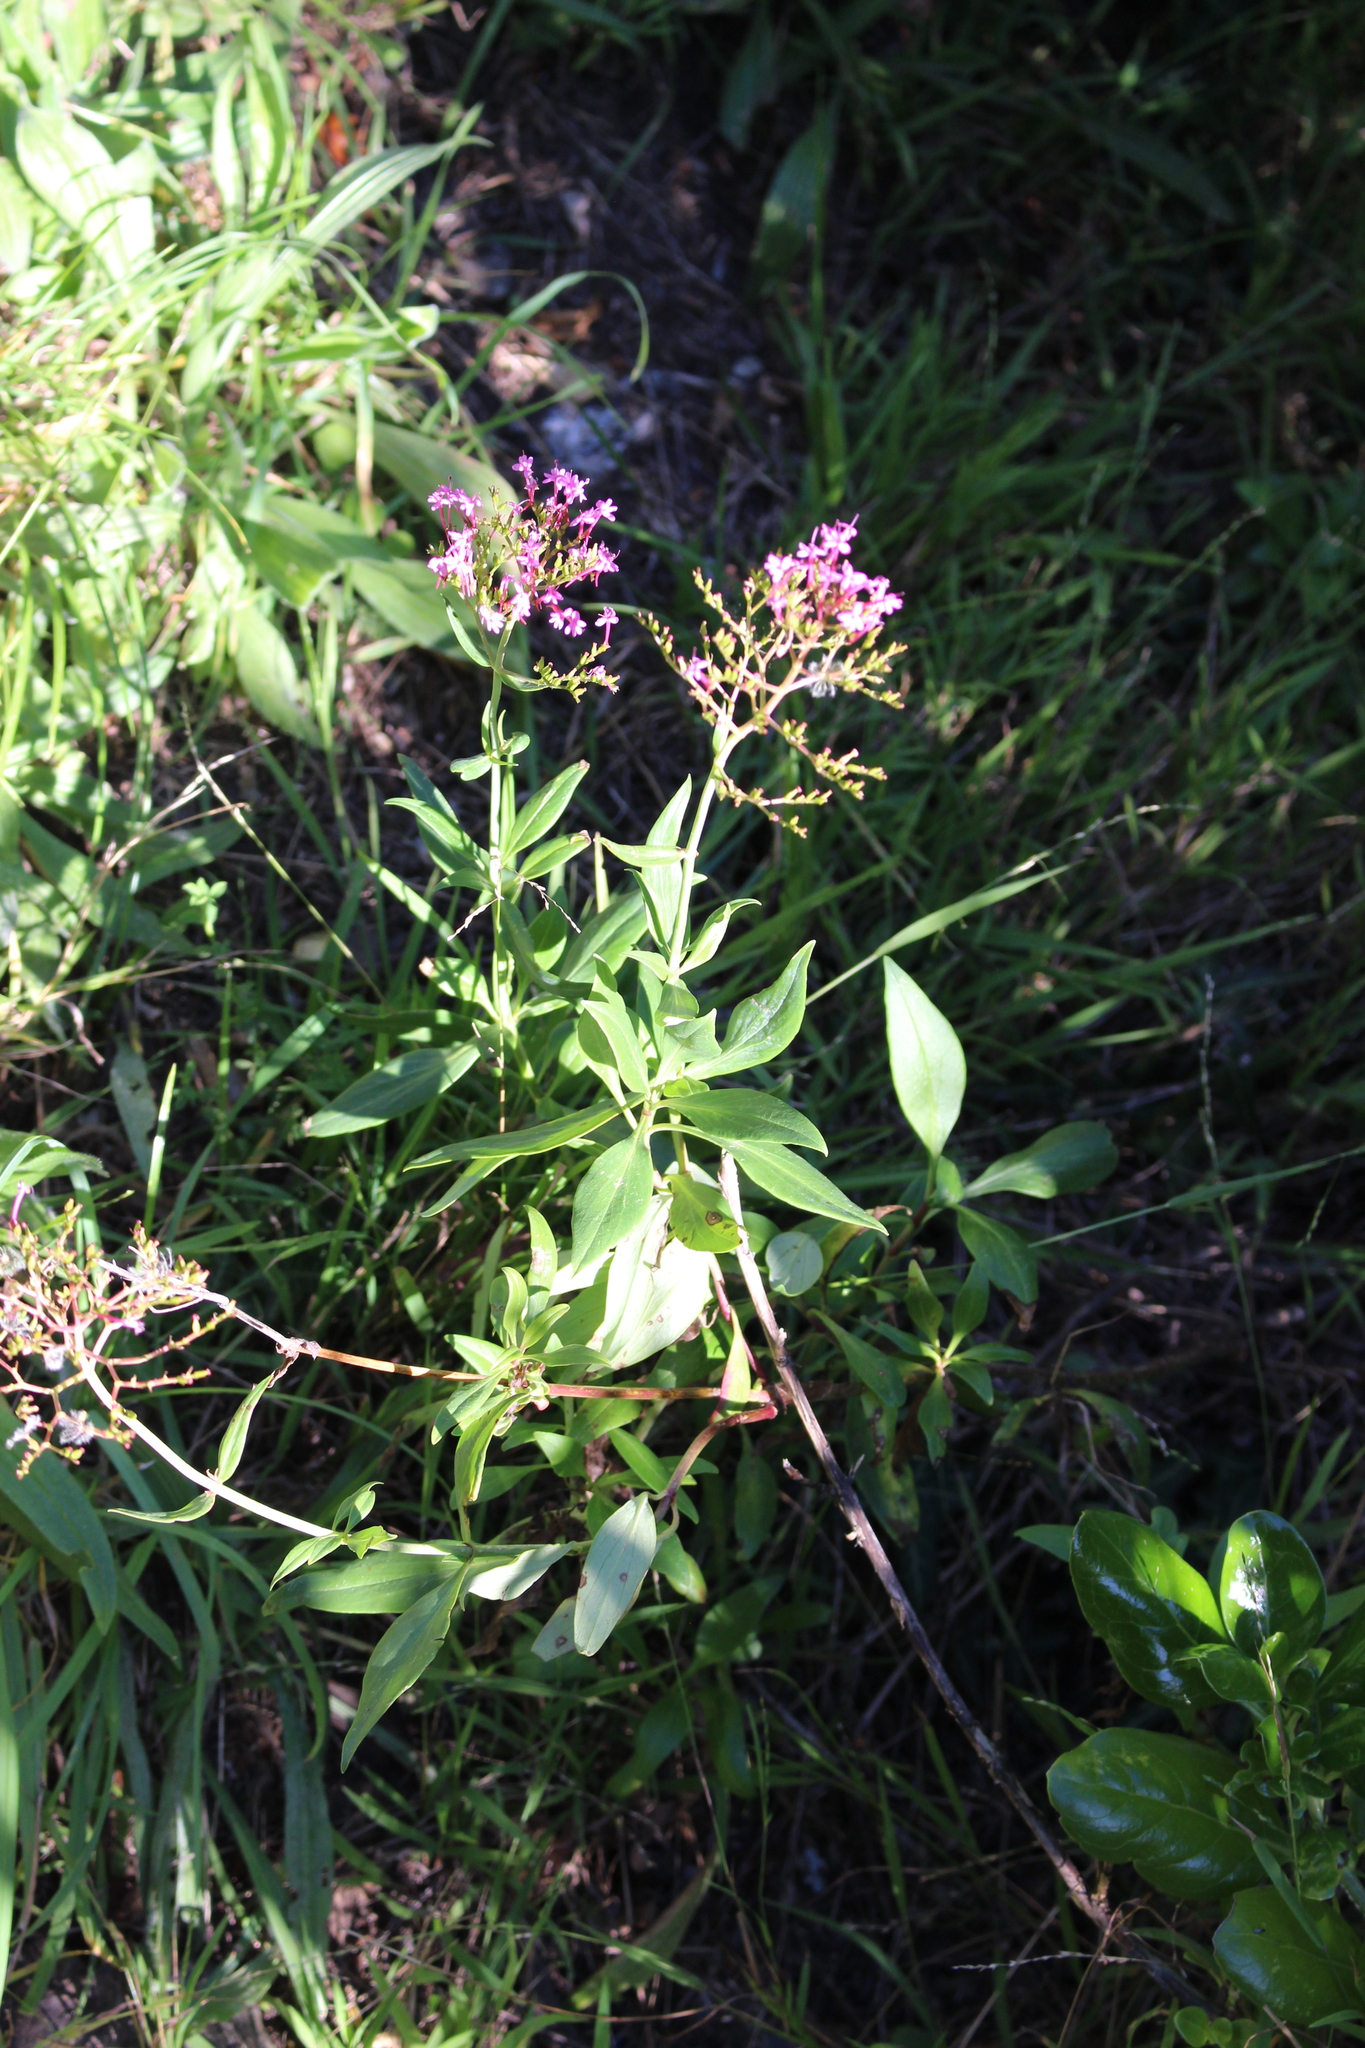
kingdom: Plantae
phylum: Tracheophyta
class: Magnoliopsida
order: Dipsacales
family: Caprifoliaceae
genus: Centranthus
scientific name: Centranthus ruber
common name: Red valerian
